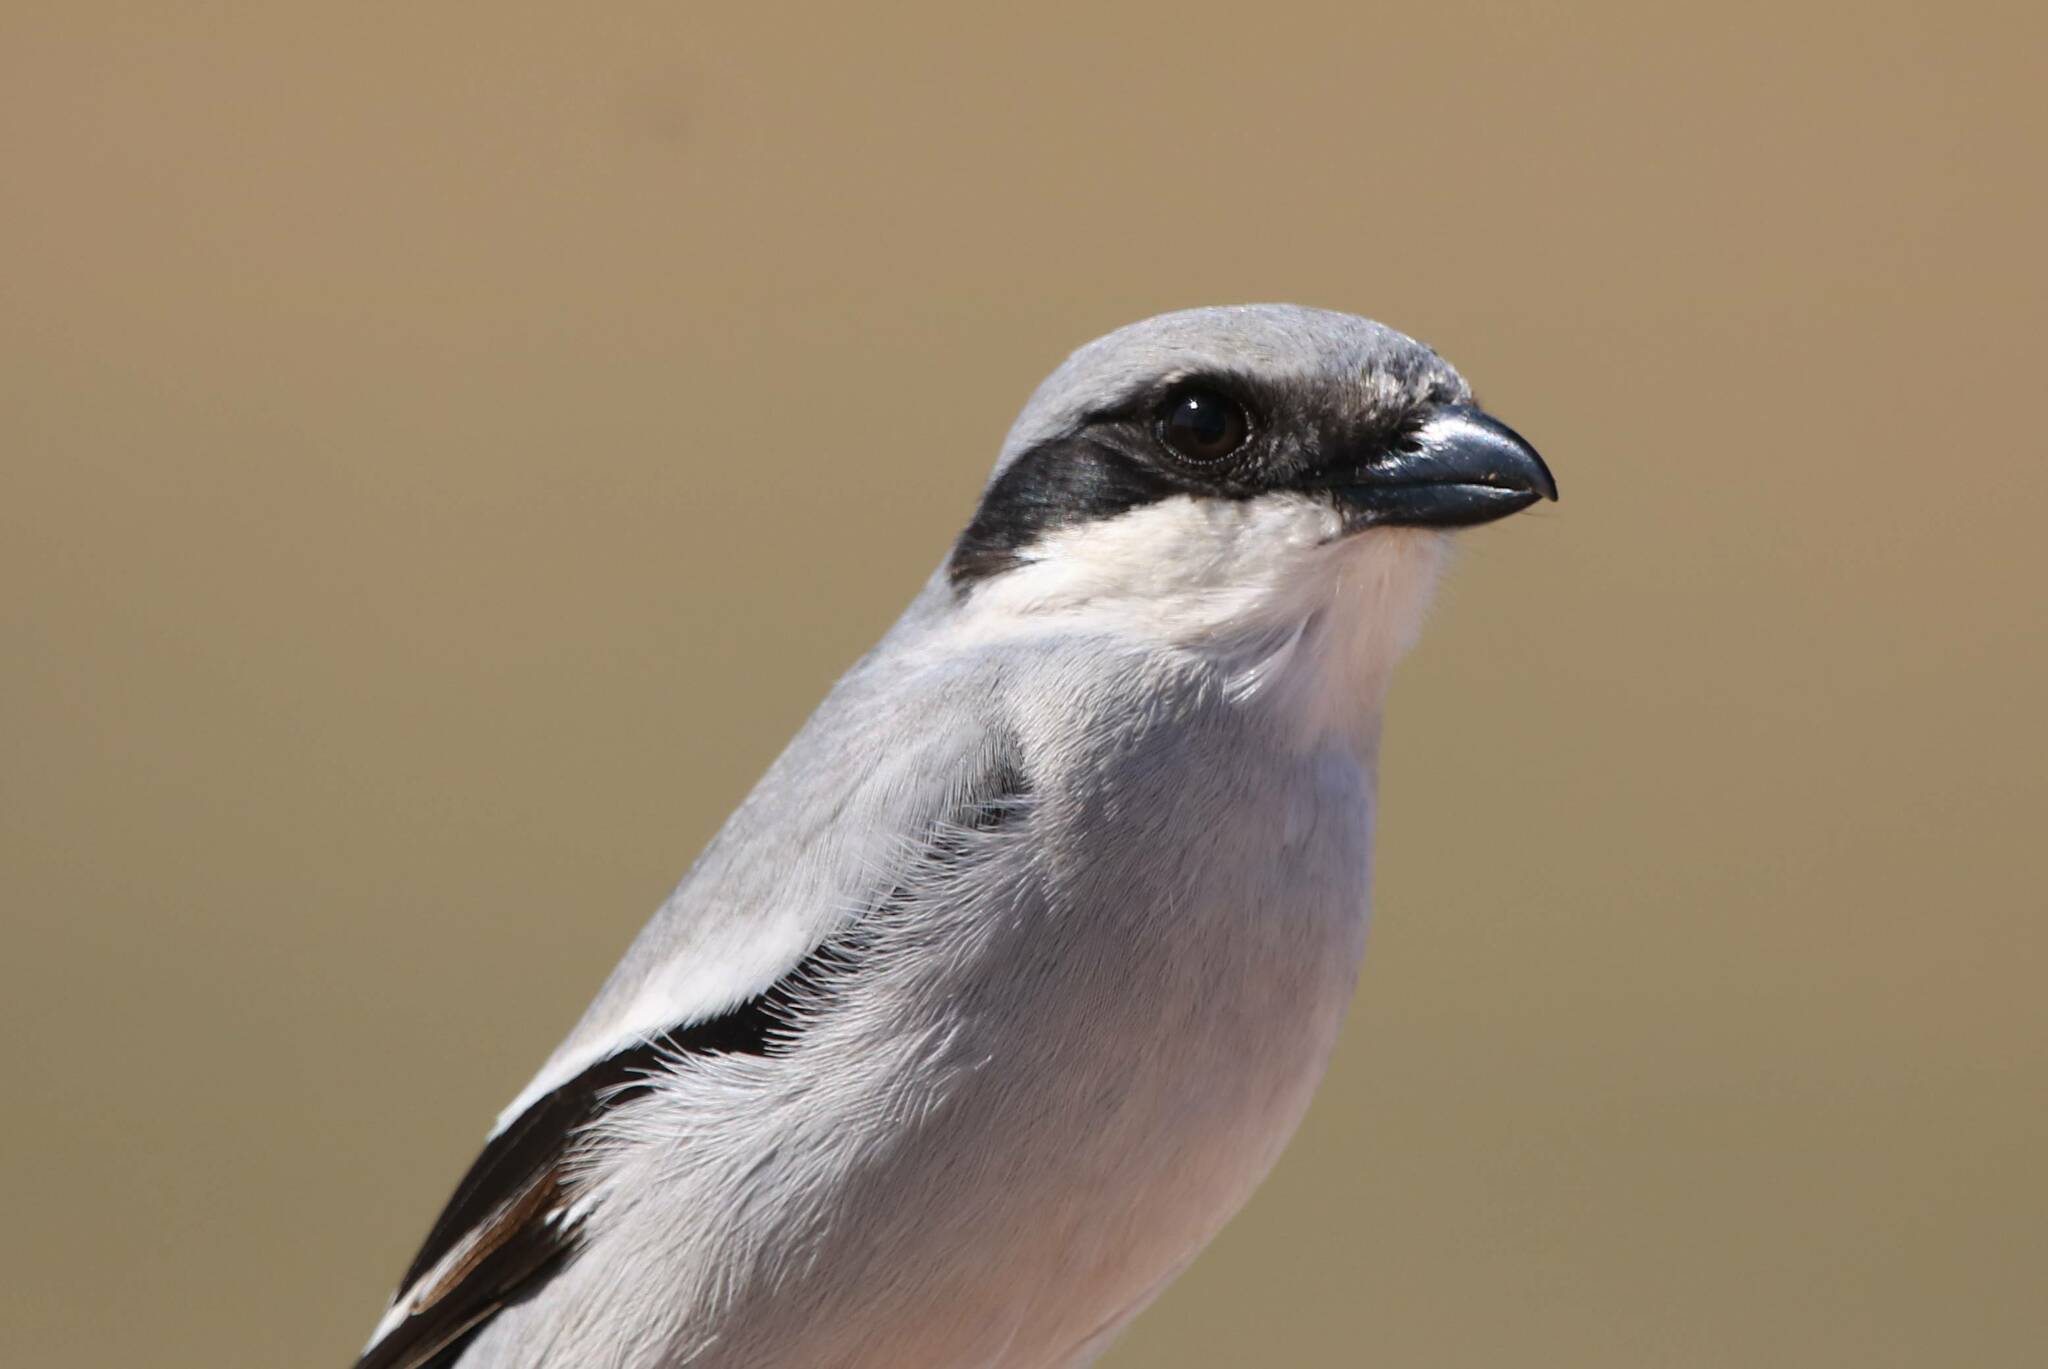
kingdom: Animalia
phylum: Chordata
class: Aves
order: Passeriformes
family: Laniidae
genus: Lanius
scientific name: Lanius excubitor
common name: Great grey shrike
